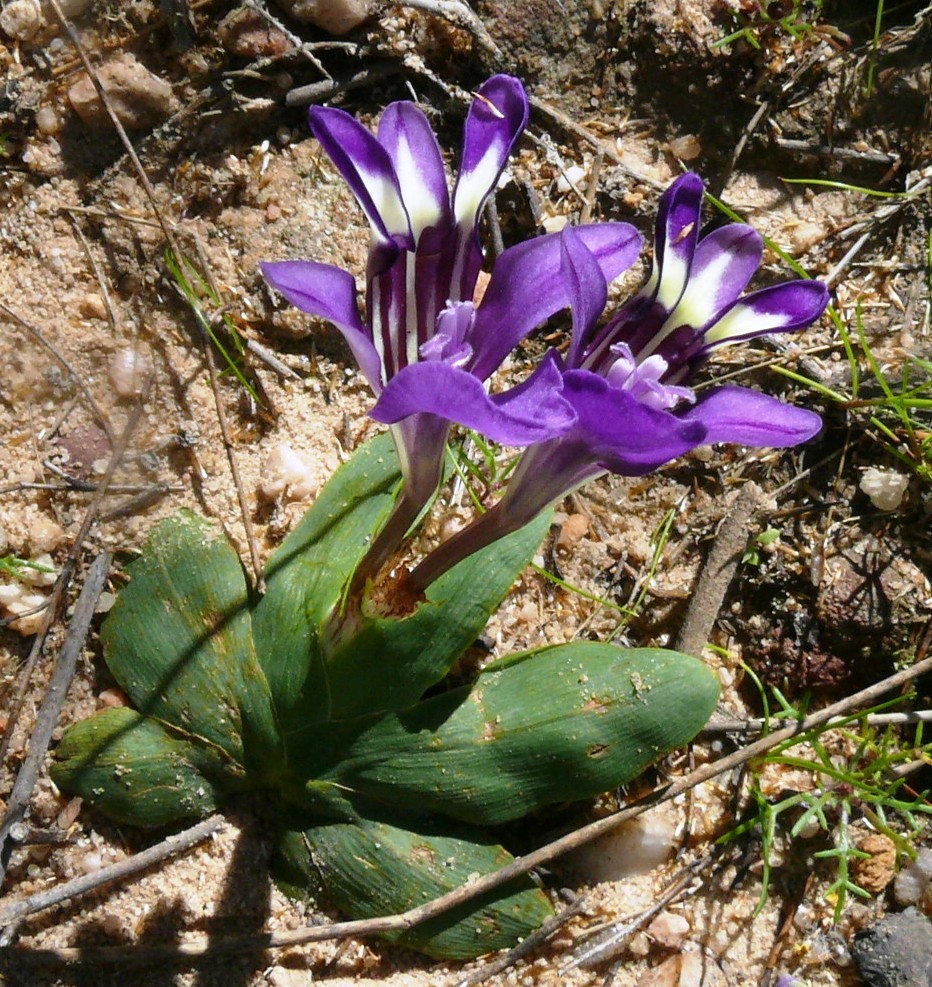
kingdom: Plantae
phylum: Tracheophyta
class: Liliopsida
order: Asparagales
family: Iridaceae
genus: Sparaxis
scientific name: Sparaxis metelerkampiae
